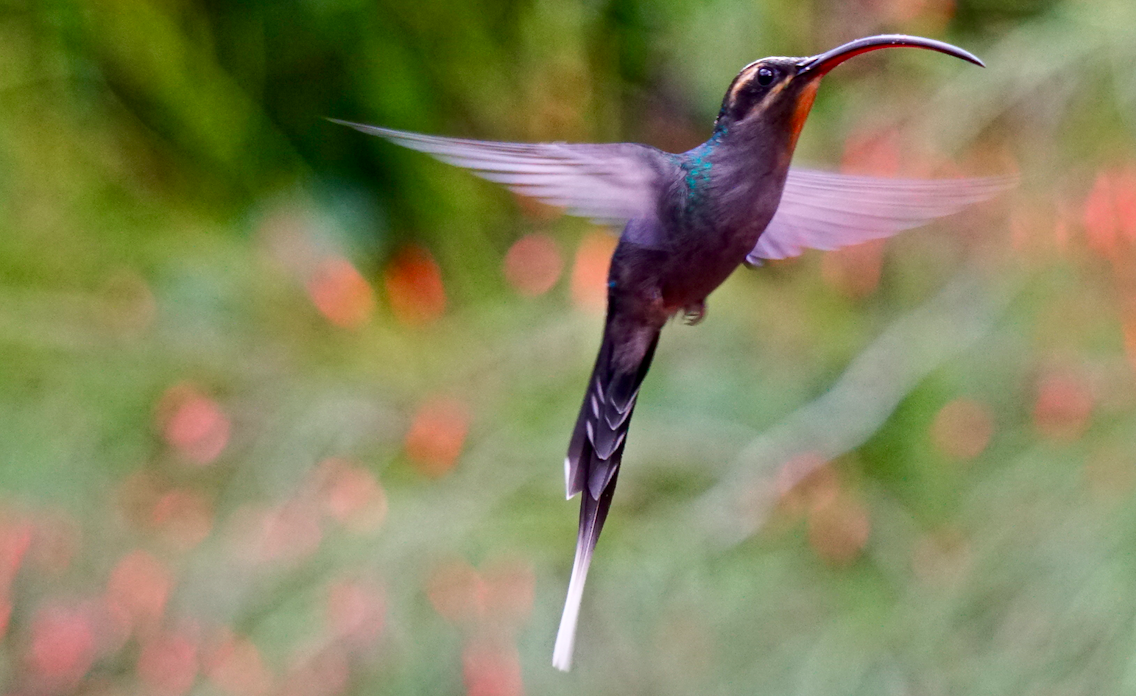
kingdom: Animalia
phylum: Chordata
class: Aves
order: Apodiformes
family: Trochilidae
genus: Phaethornis
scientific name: Phaethornis guy
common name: Green hermit
